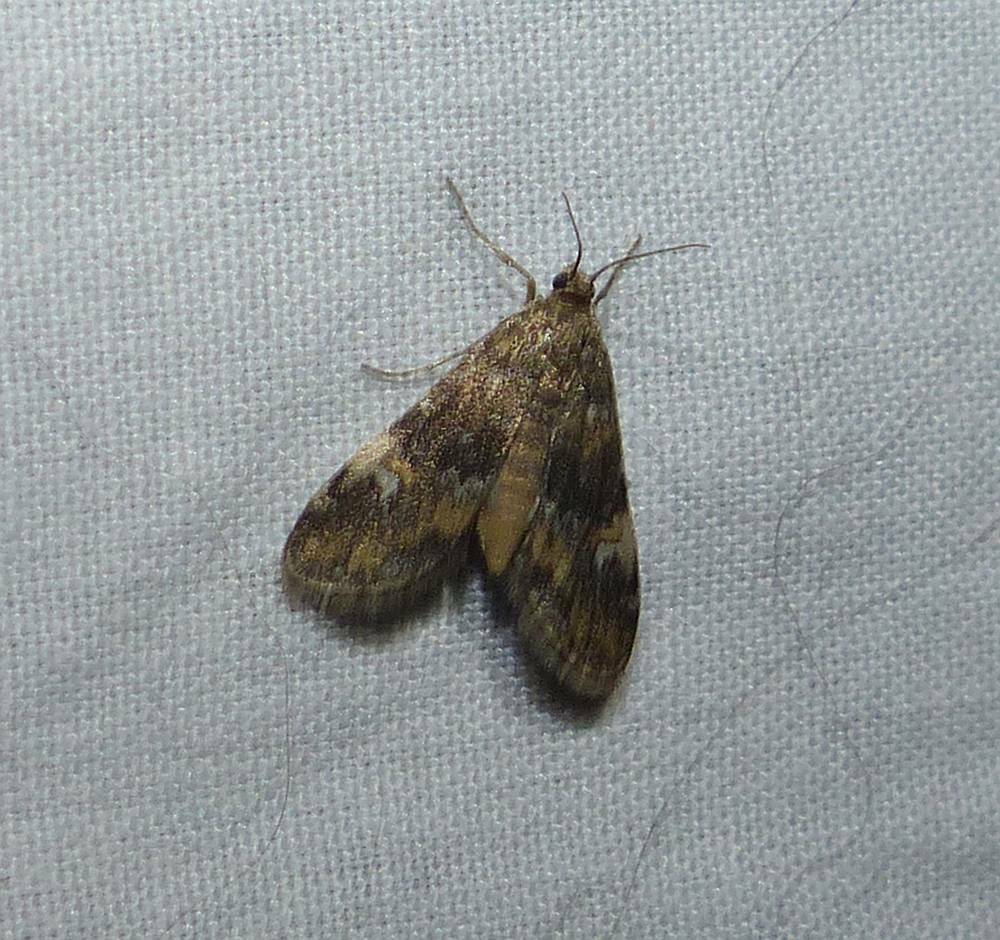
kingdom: Animalia
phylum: Arthropoda
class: Insecta
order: Lepidoptera
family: Crambidae
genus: Elophila
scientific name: Elophila obliteralis
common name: Waterlily leafcutter moth
